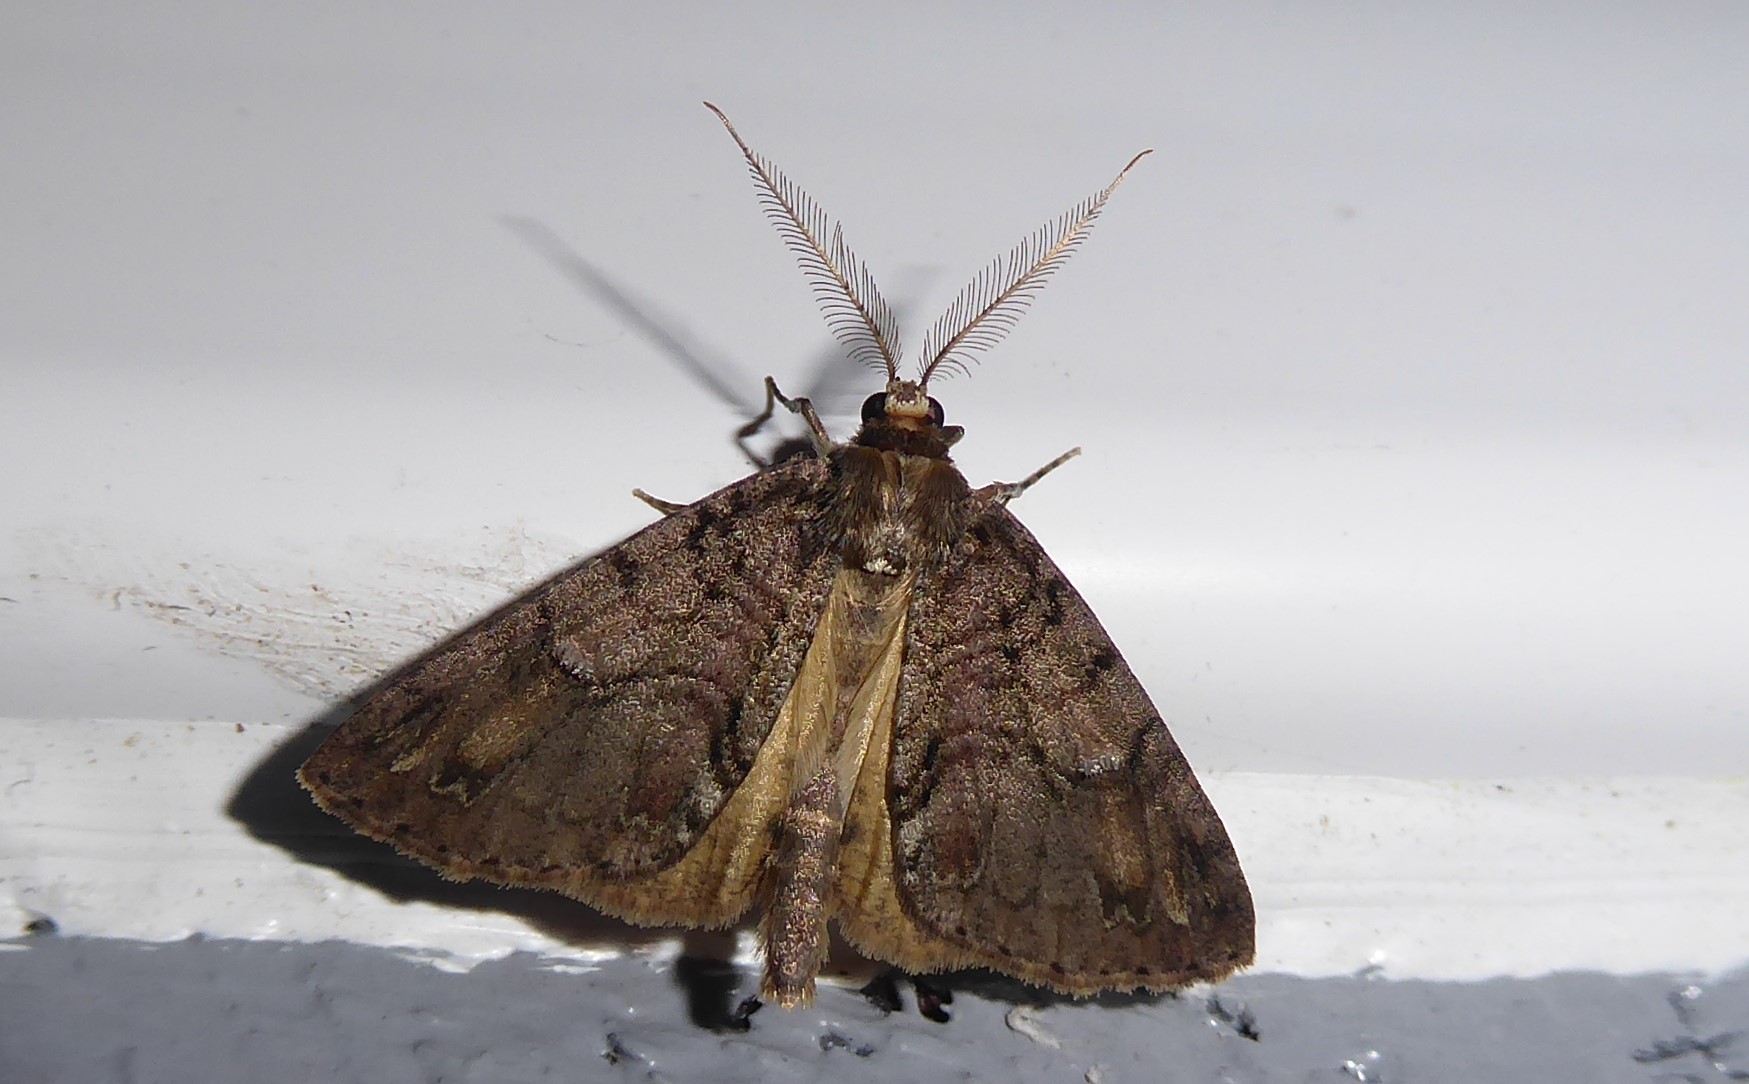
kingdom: Animalia
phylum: Arthropoda
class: Insecta
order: Lepidoptera
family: Geometridae
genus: Pseudocoremia
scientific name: Pseudocoremia suavis
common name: Common forest looper
